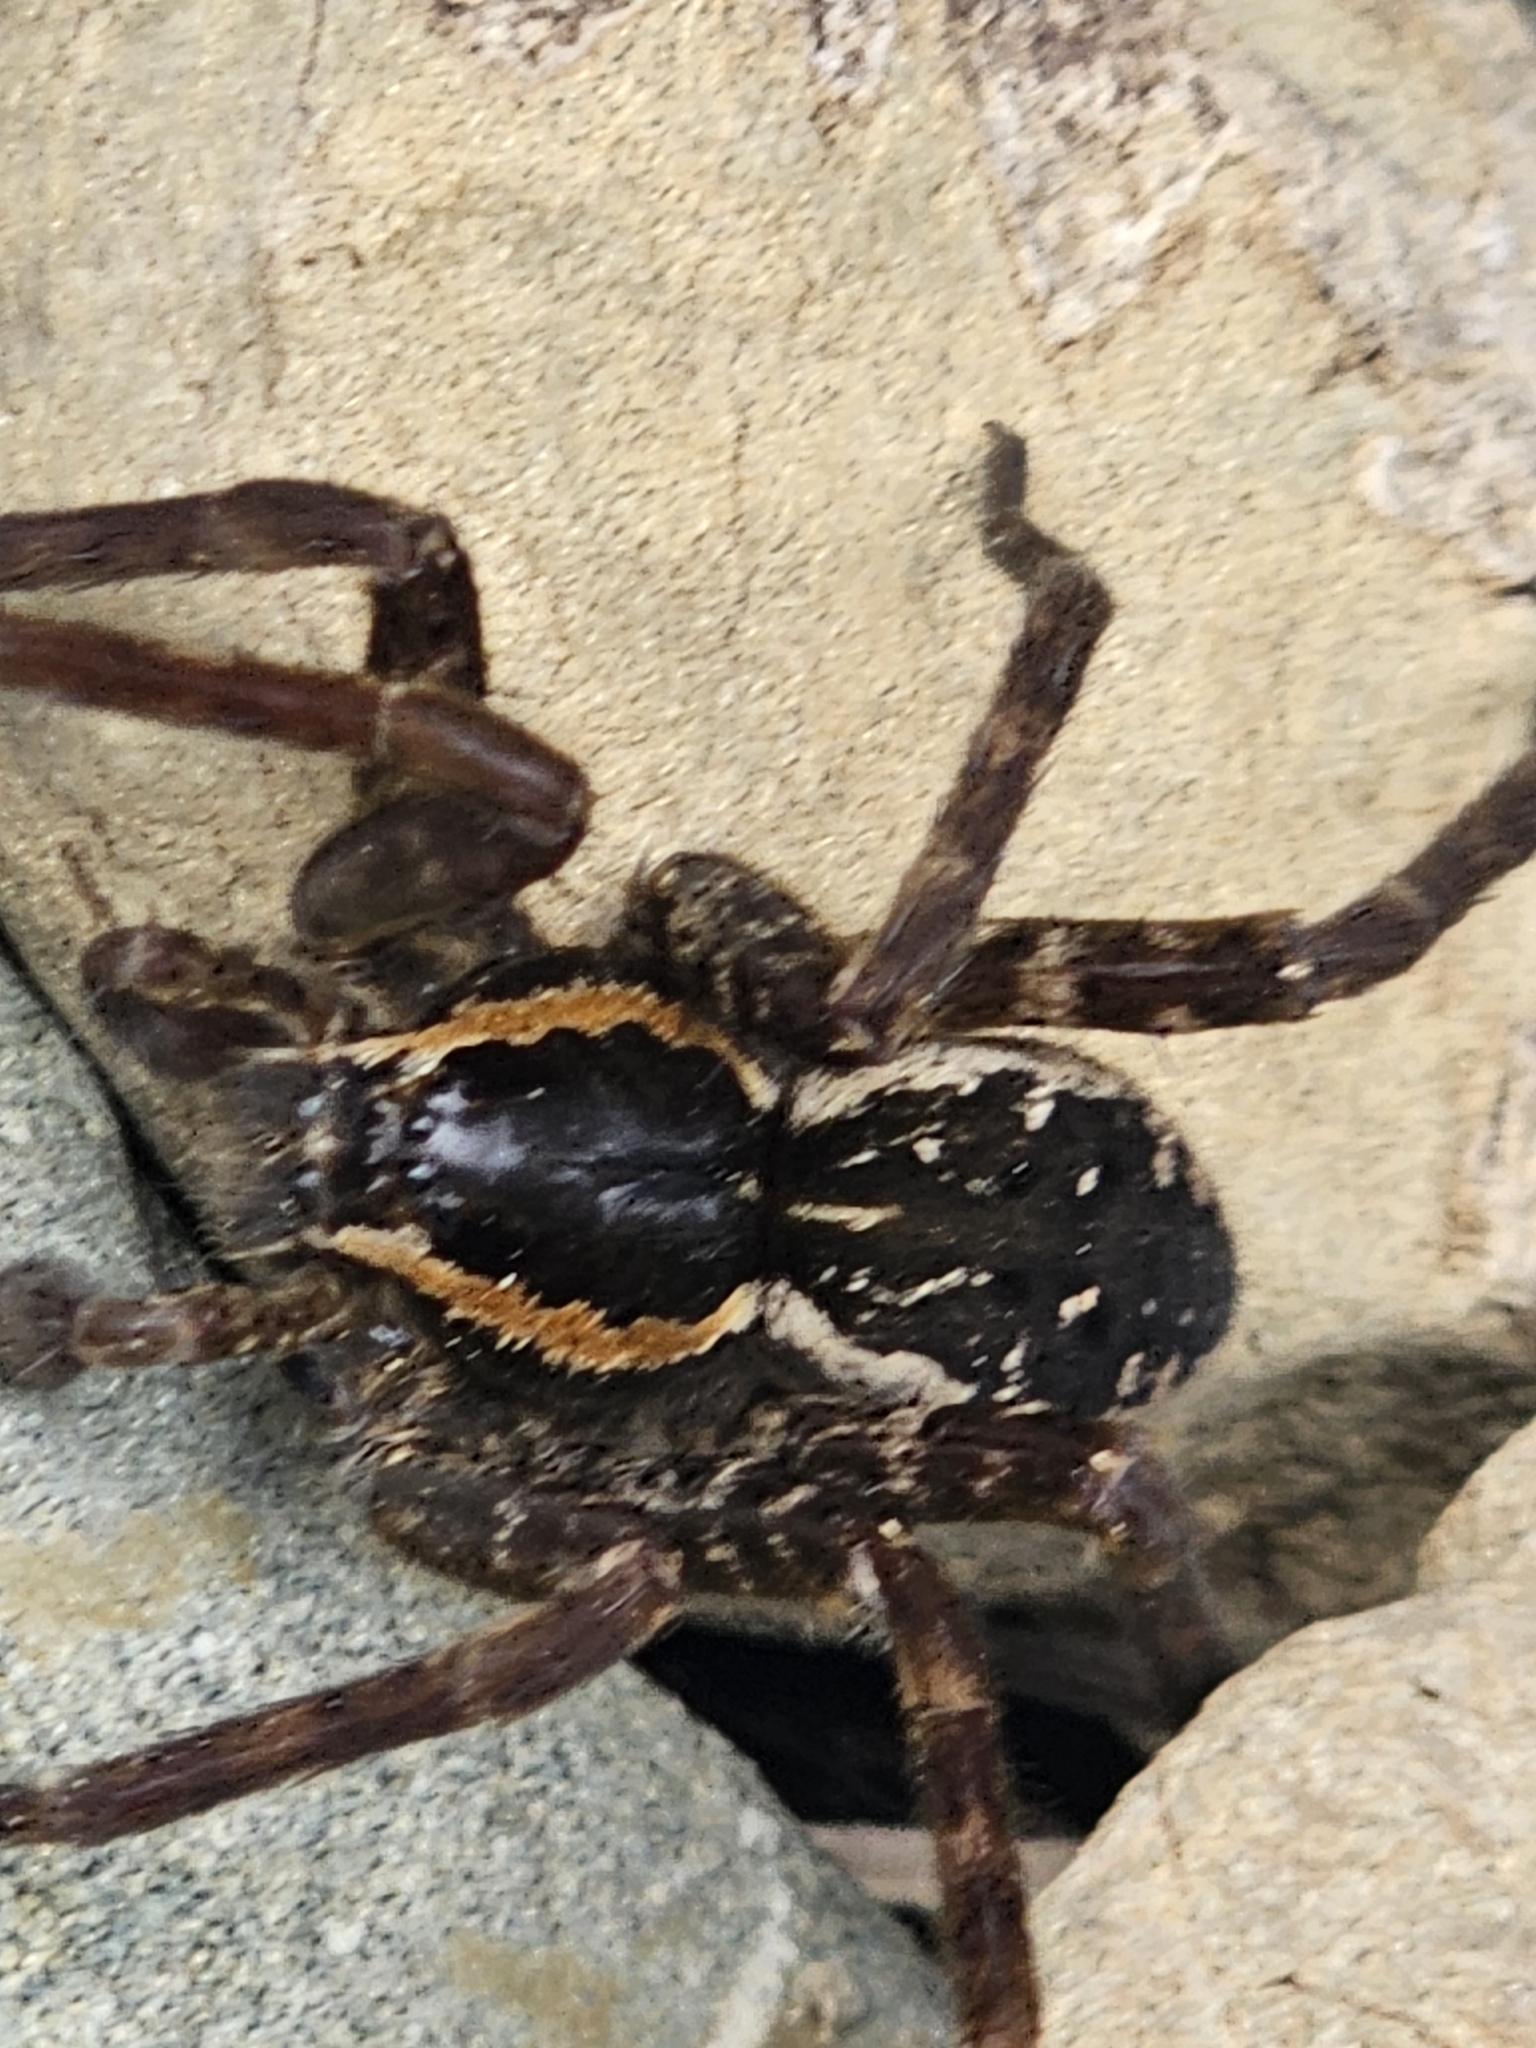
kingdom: Animalia
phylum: Arthropoda
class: Arachnida
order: Araneae
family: Pisauridae
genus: Dolomedes
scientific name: Dolomedes dondalei
